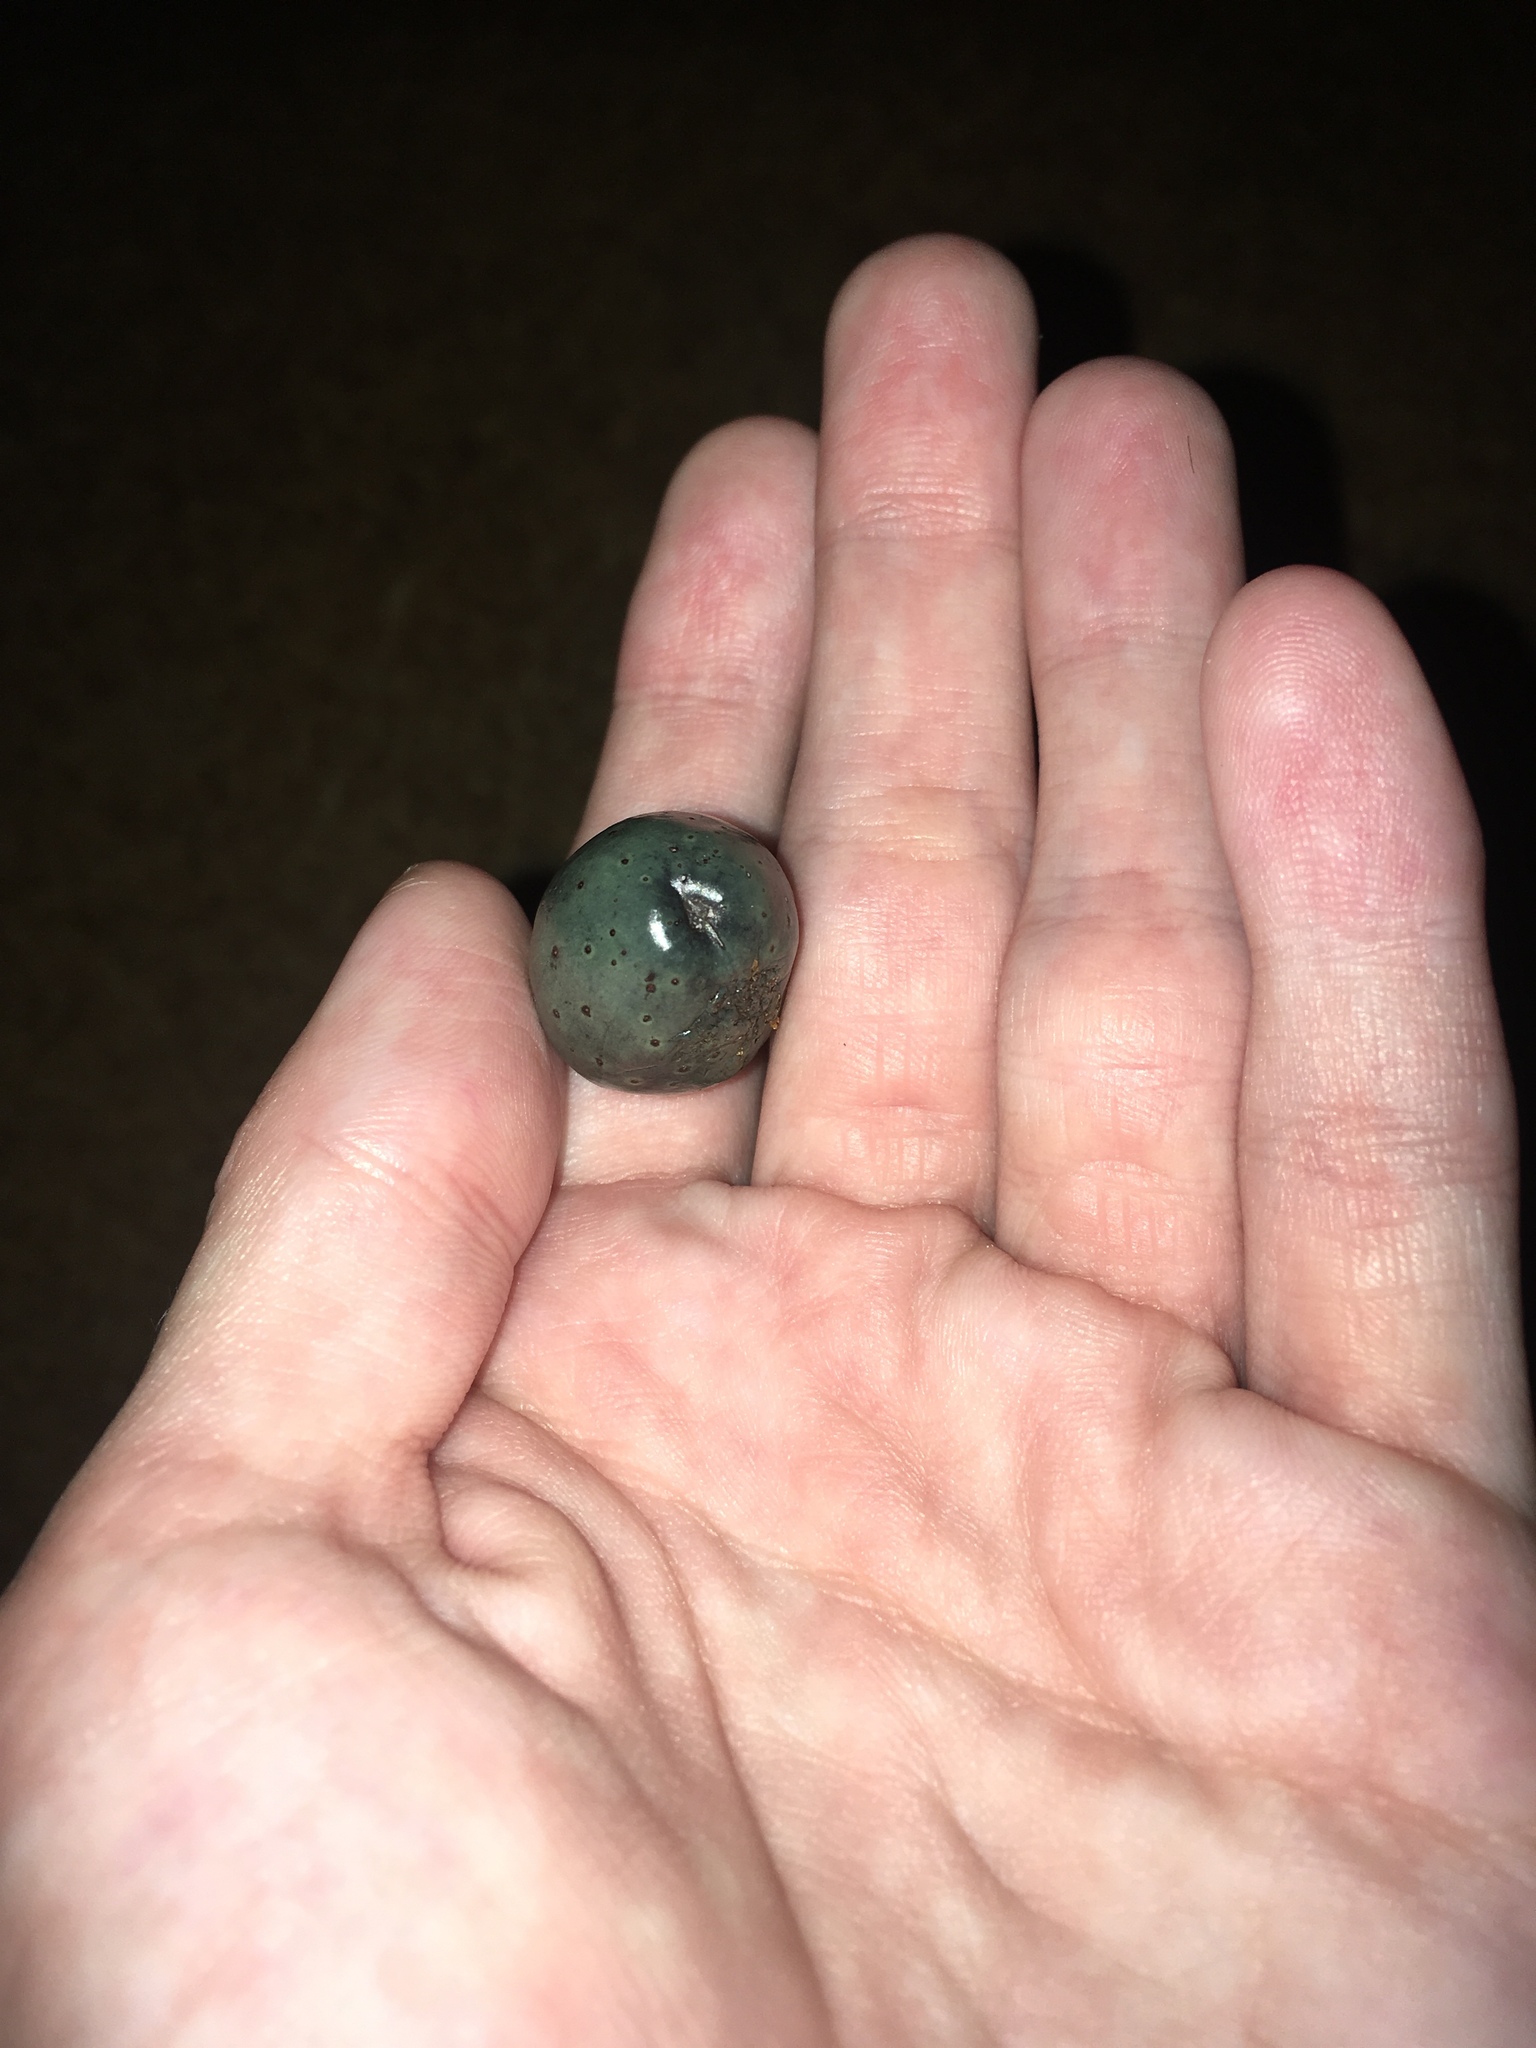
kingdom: Plantae
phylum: Tracheophyta
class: Liliopsida
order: Arecales
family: Arecaceae
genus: Livistona
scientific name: Livistona chinensis
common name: Fountain palm
